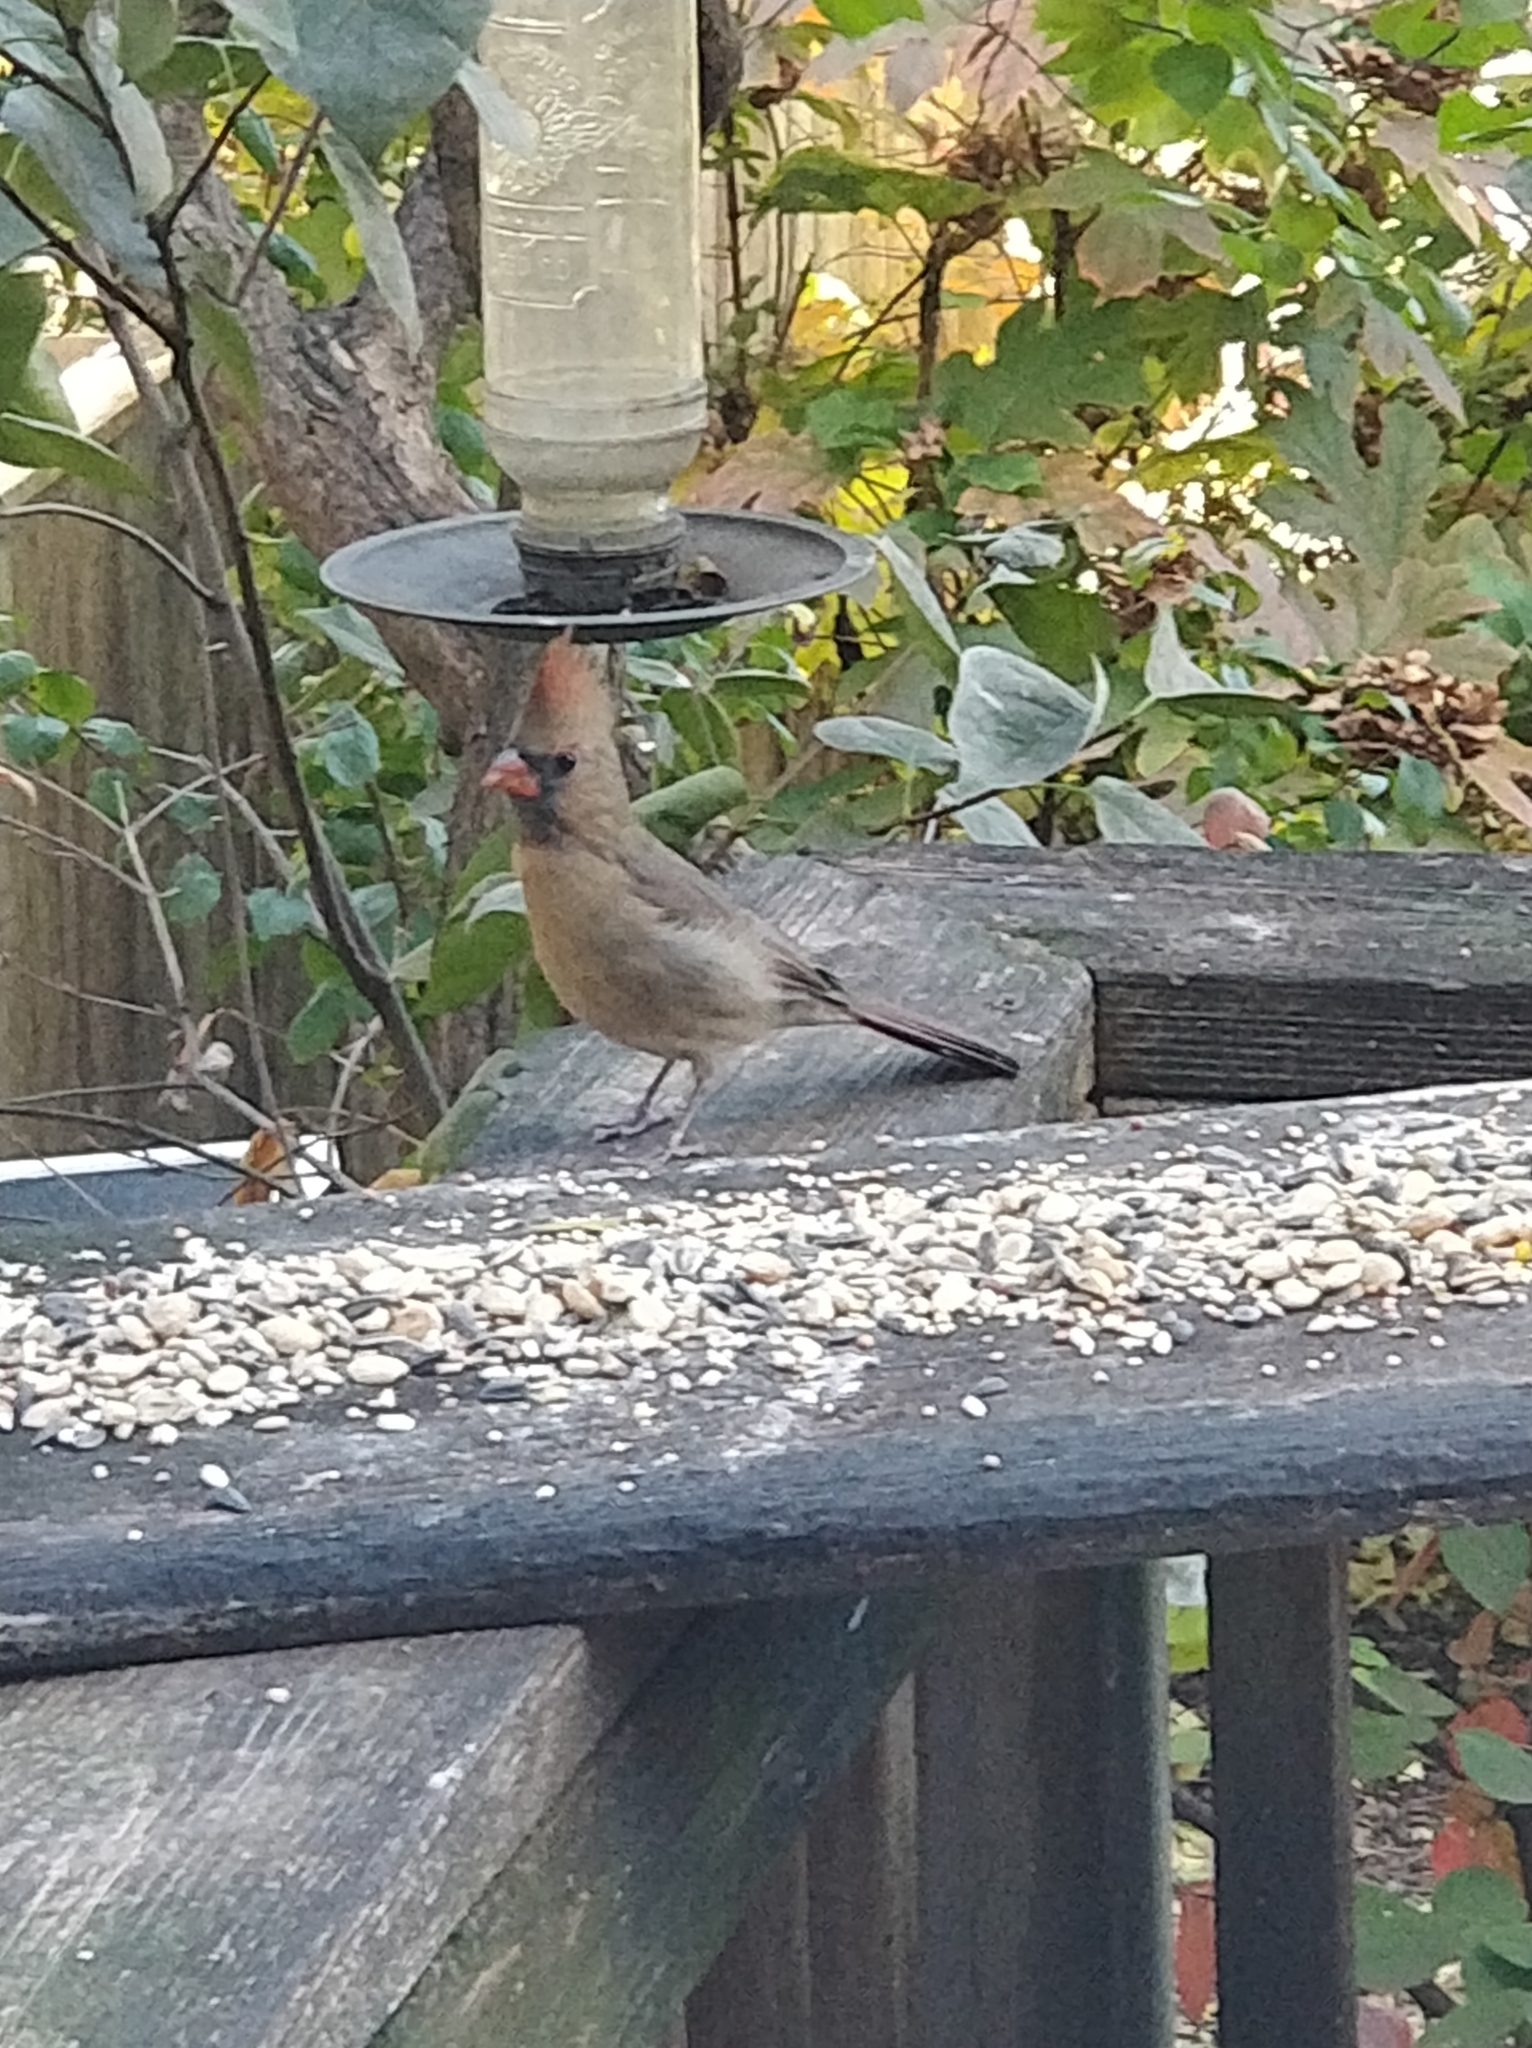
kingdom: Animalia
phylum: Chordata
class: Aves
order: Passeriformes
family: Cardinalidae
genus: Cardinalis
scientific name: Cardinalis cardinalis
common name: Northern cardinal
